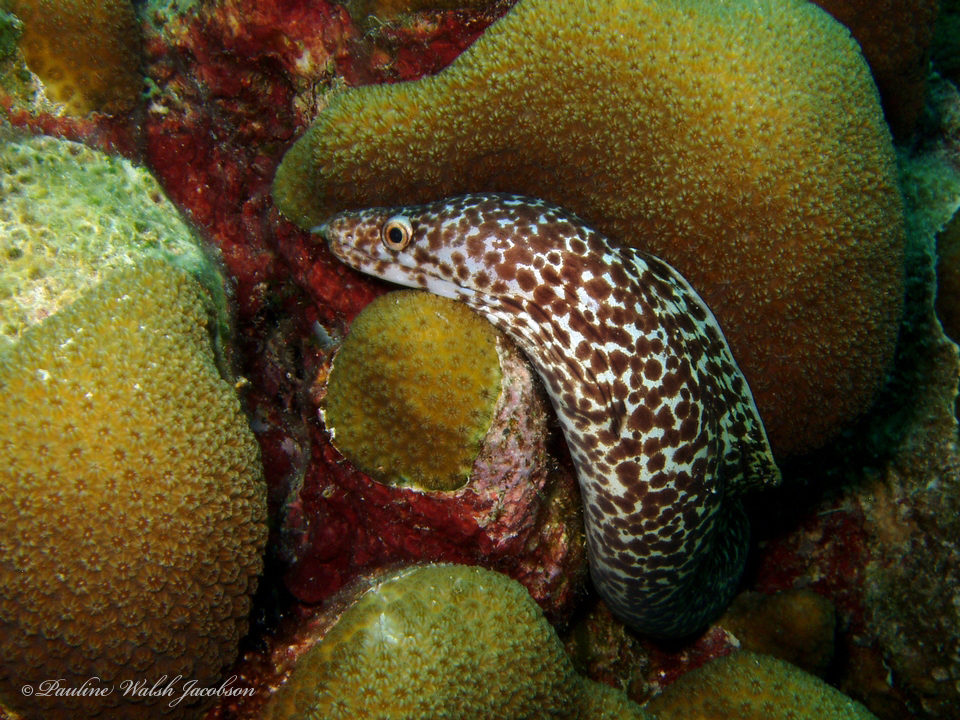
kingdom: Animalia
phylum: Chordata
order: Anguilliformes
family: Muraenidae
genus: Gymnothorax
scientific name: Gymnothorax moringa
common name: Spotted moray
